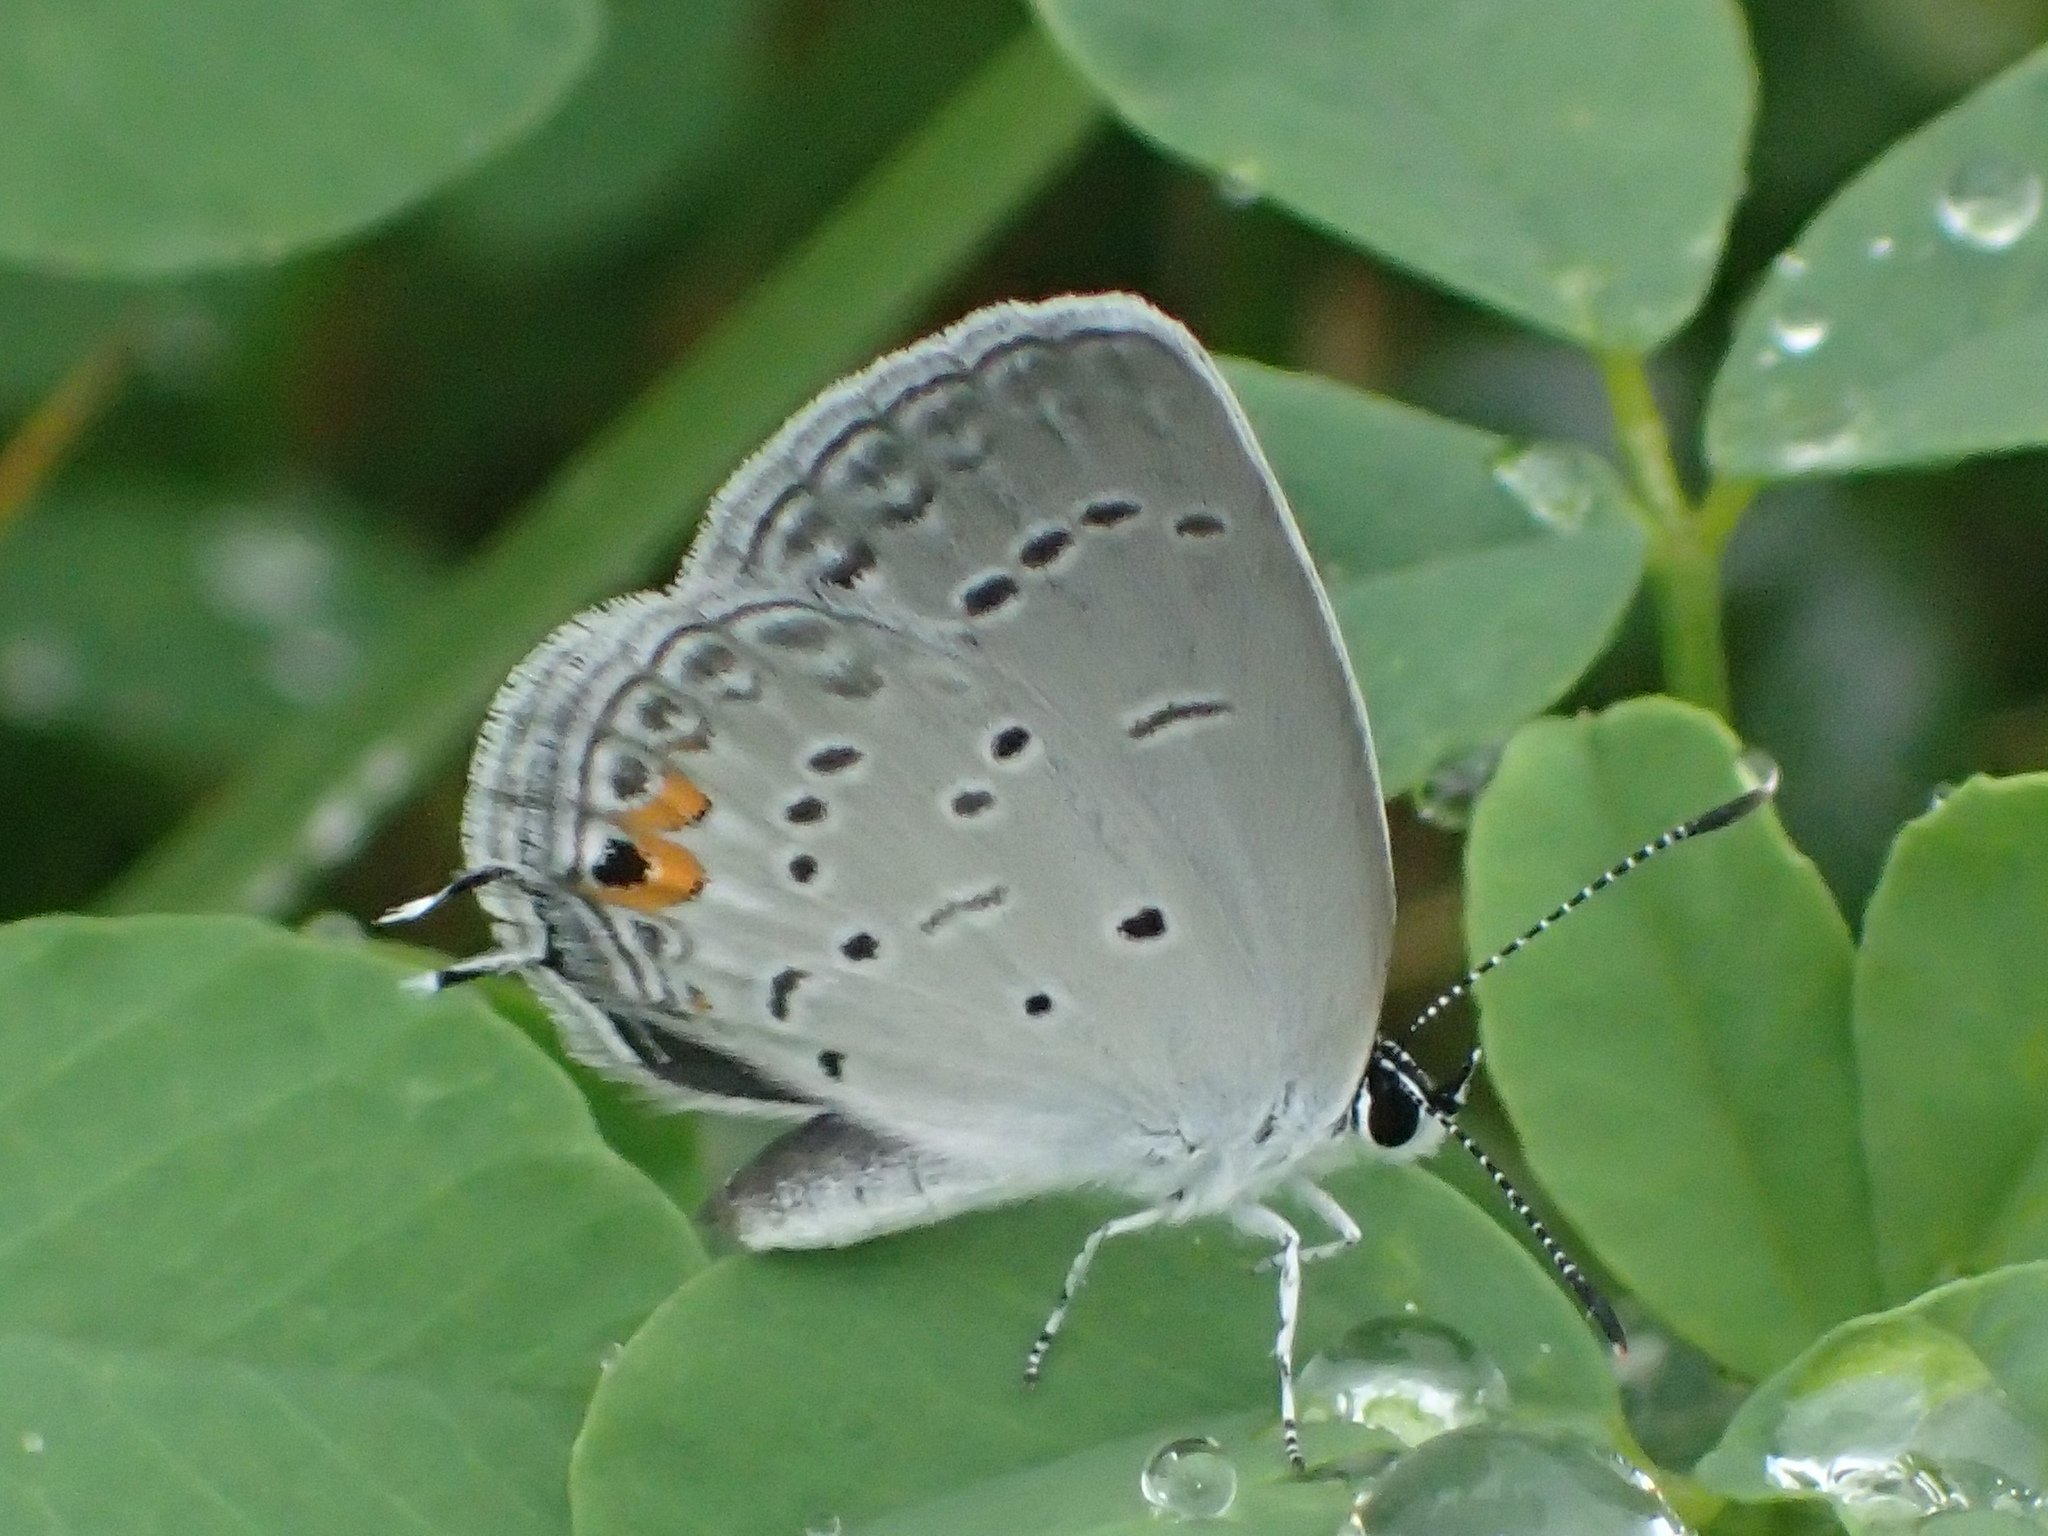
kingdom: Animalia
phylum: Arthropoda
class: Insecta
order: Lepidoptera
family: Lycaenidae
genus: Elkalyce
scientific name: Elkalyce comyntas
